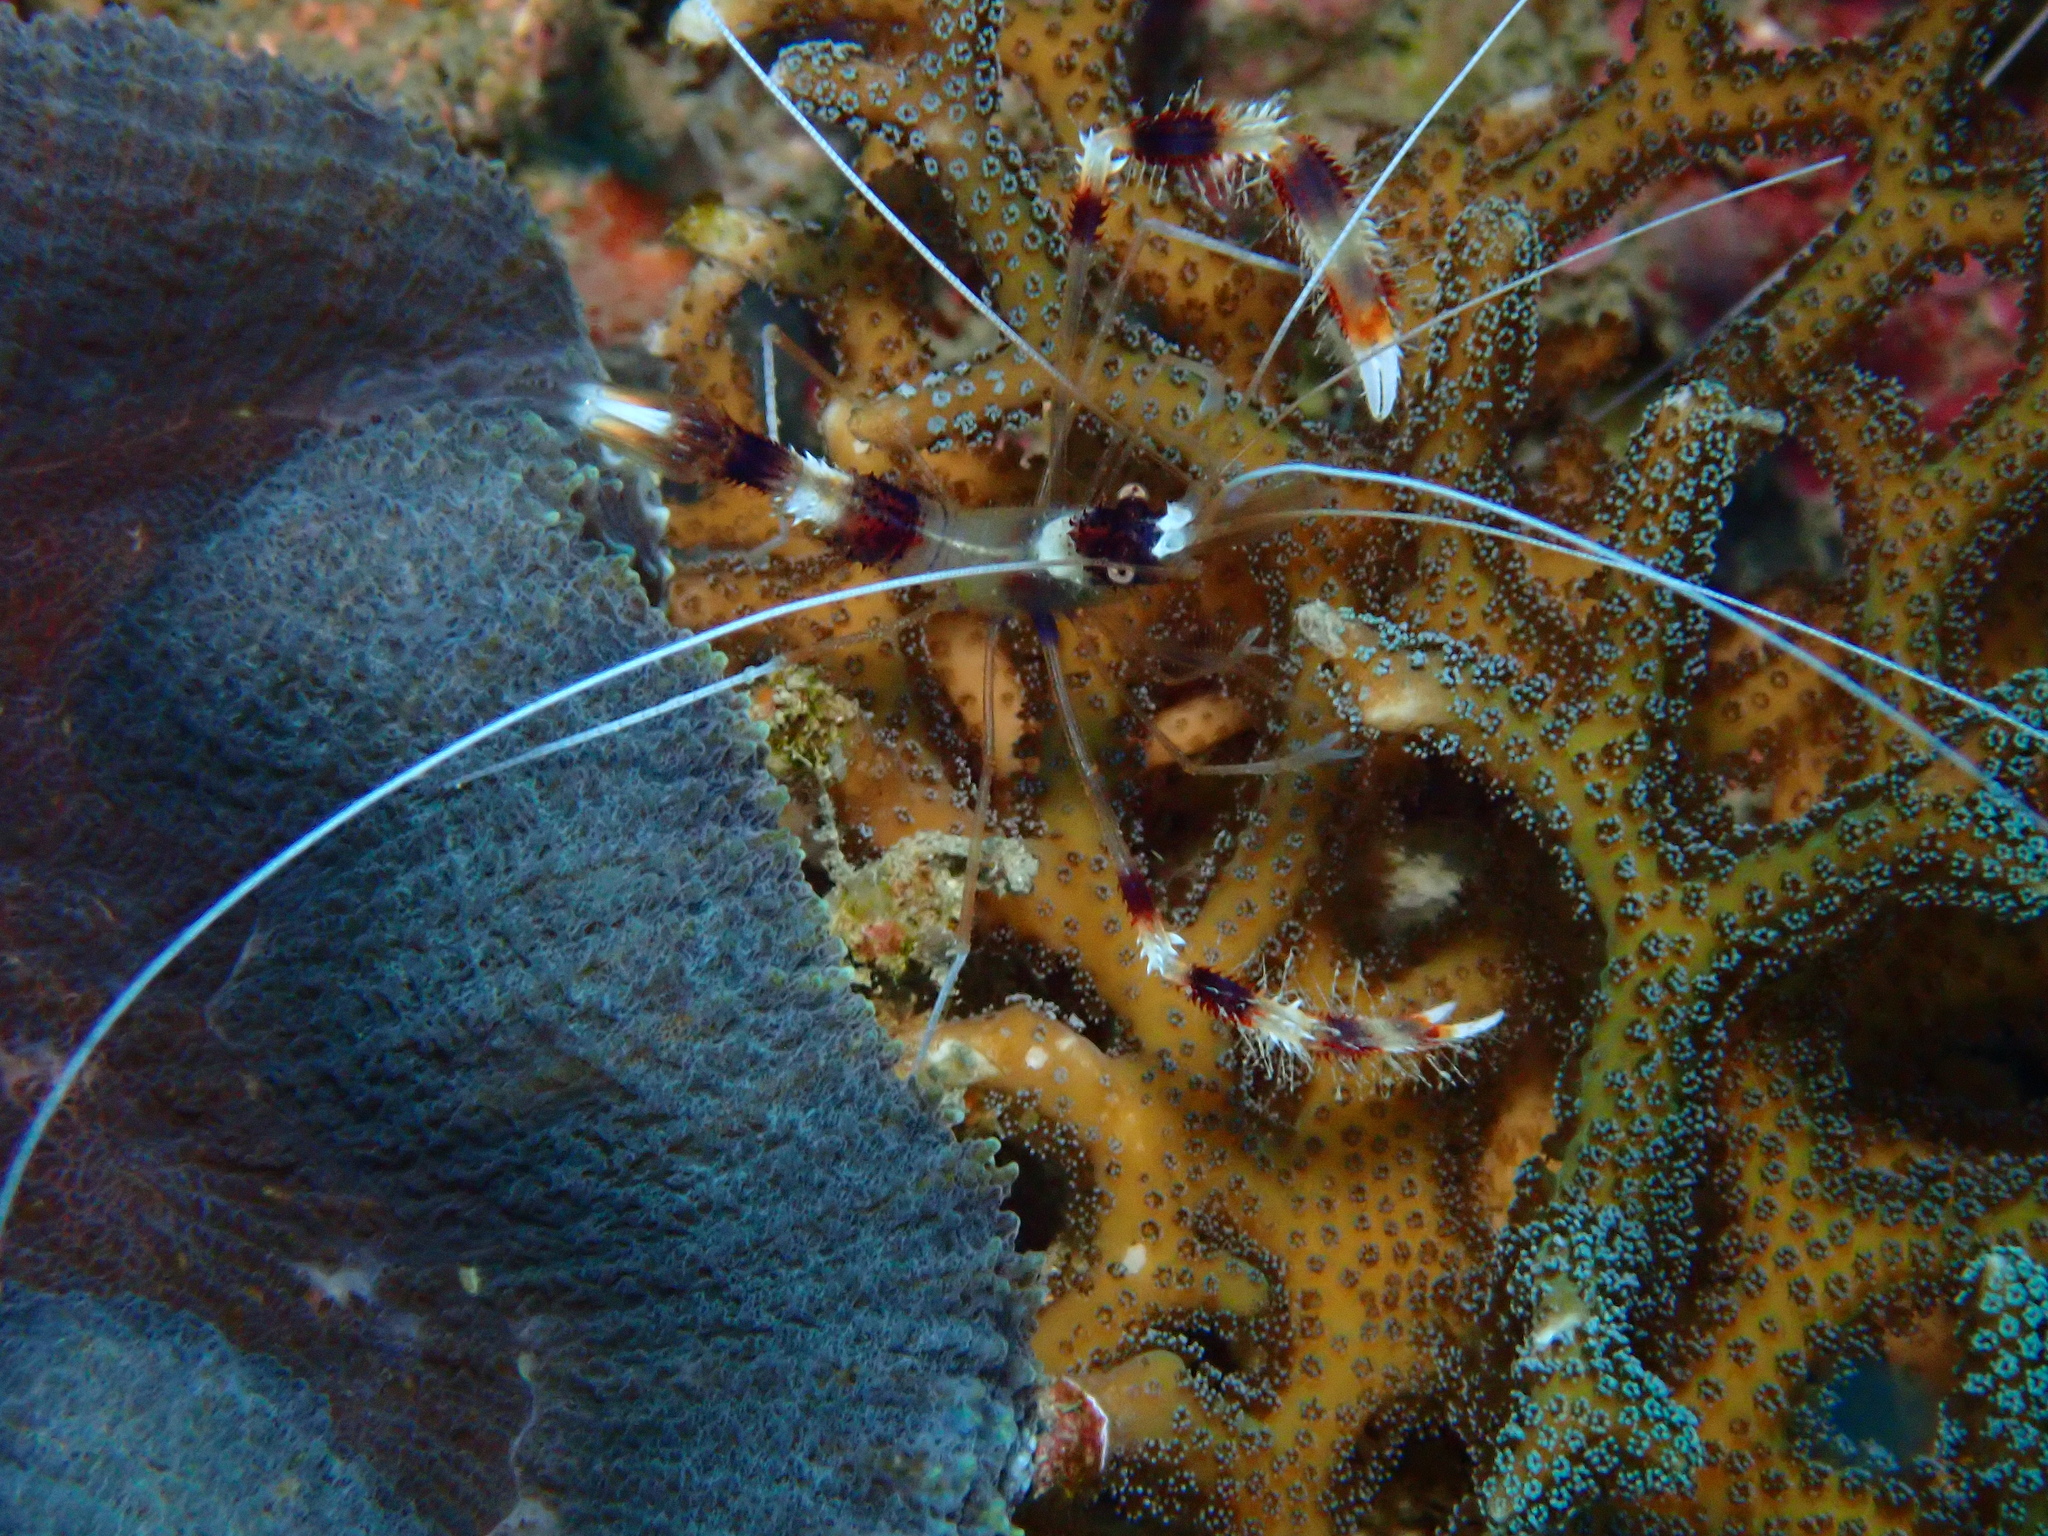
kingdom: Animalia
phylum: Arthropoda
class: Malacostraca
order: Decapoda
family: Stenopodidae
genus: Stenopus
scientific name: Stenopus hispidus
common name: Banded coral shrimp
